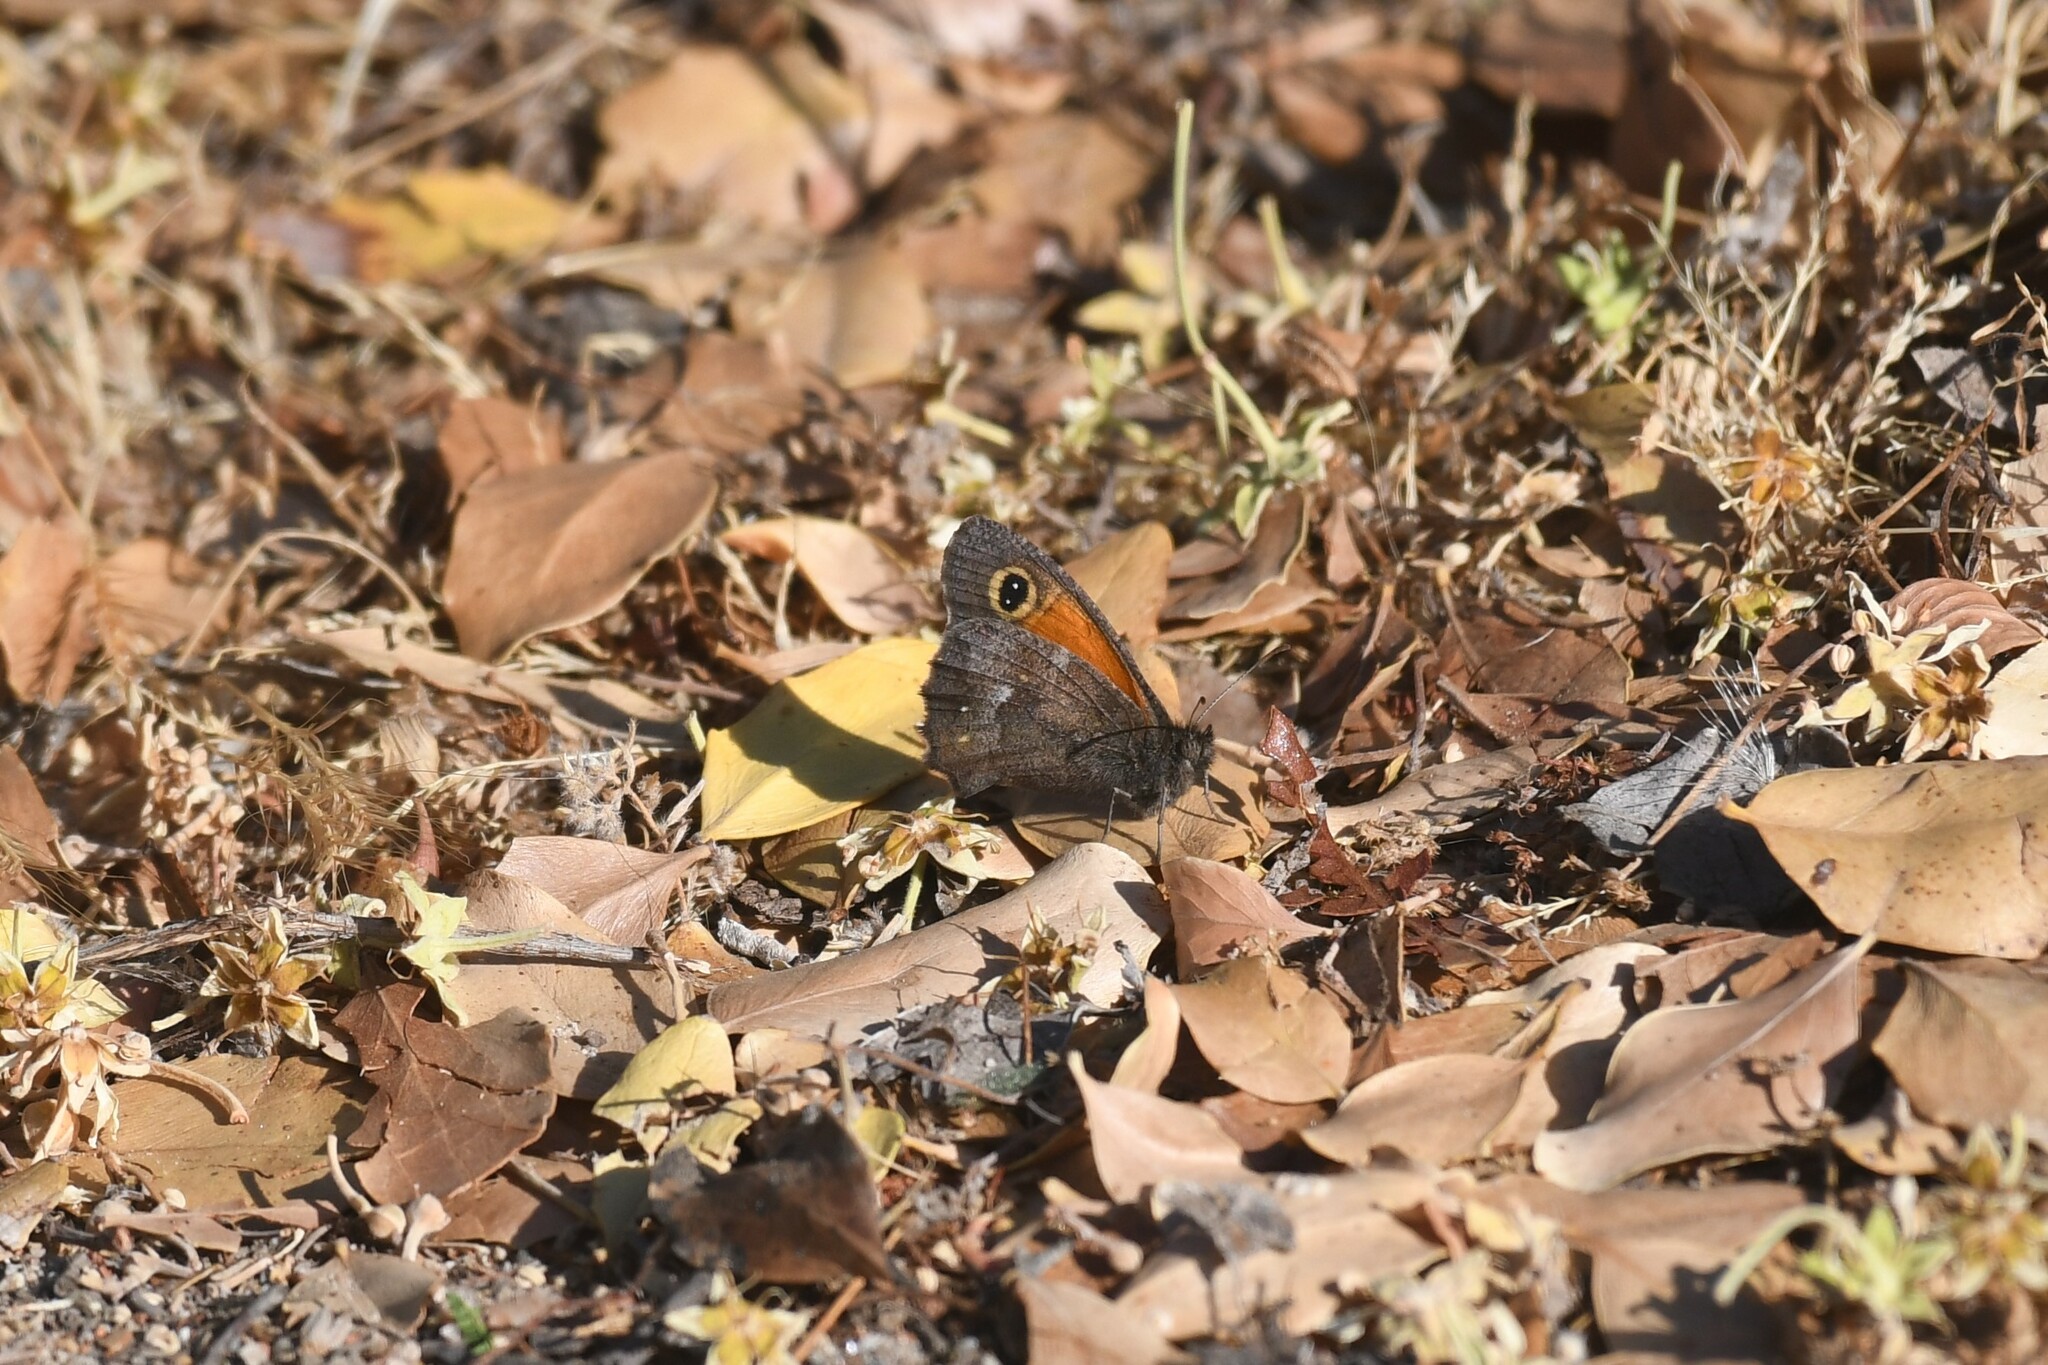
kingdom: Animalia
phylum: Arthropoda
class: Insecta
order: Lepidoptera
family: Nymphalidae
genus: Auca
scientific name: Auca barrosi
